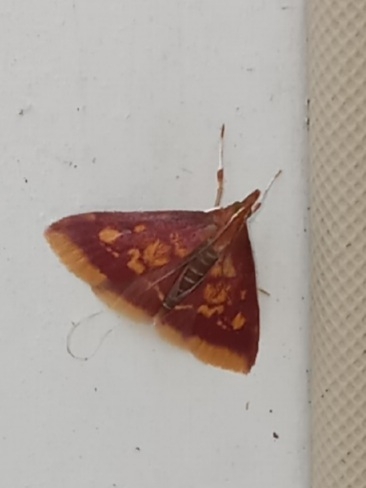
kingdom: Animalia
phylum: Arthropoda
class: Insecta
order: Lepidoptera
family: Crambidae
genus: Pyrausta
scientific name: Pyrausta acrionalis
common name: Mint-loving pyrausta moth
